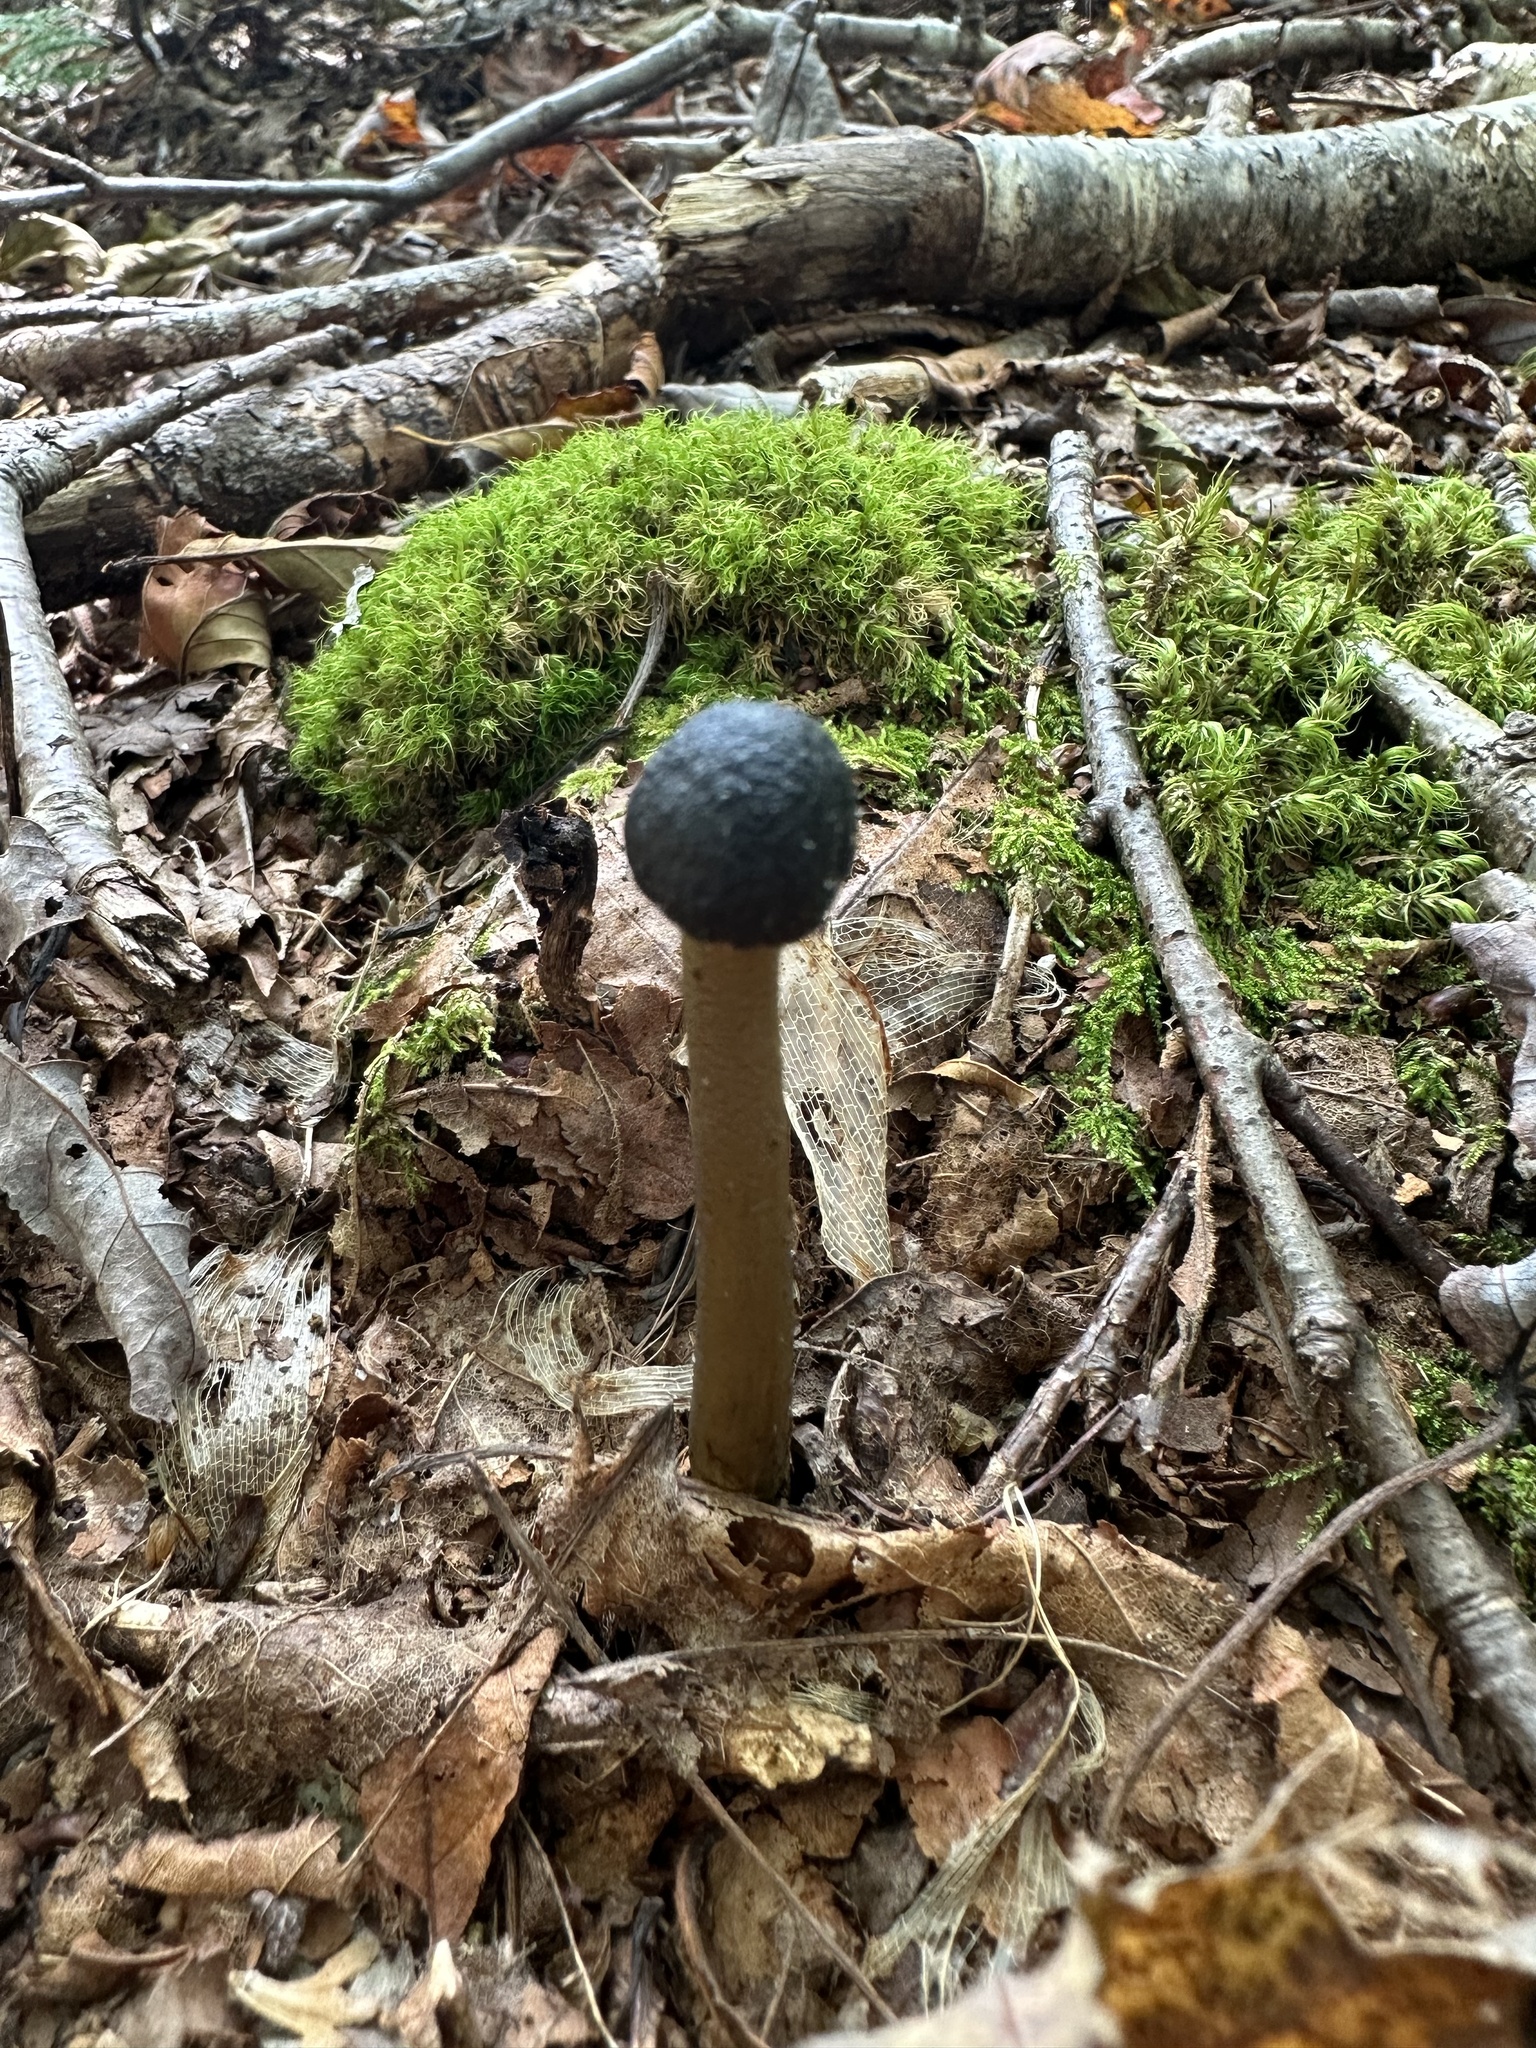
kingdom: Fungi
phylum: Ascomycota
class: Sordariomycetes
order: Hypocreales
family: Ophiocordycipitaceae
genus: Tolypocladium
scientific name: Tolypocladium capitatum
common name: Capitate truffleclub
